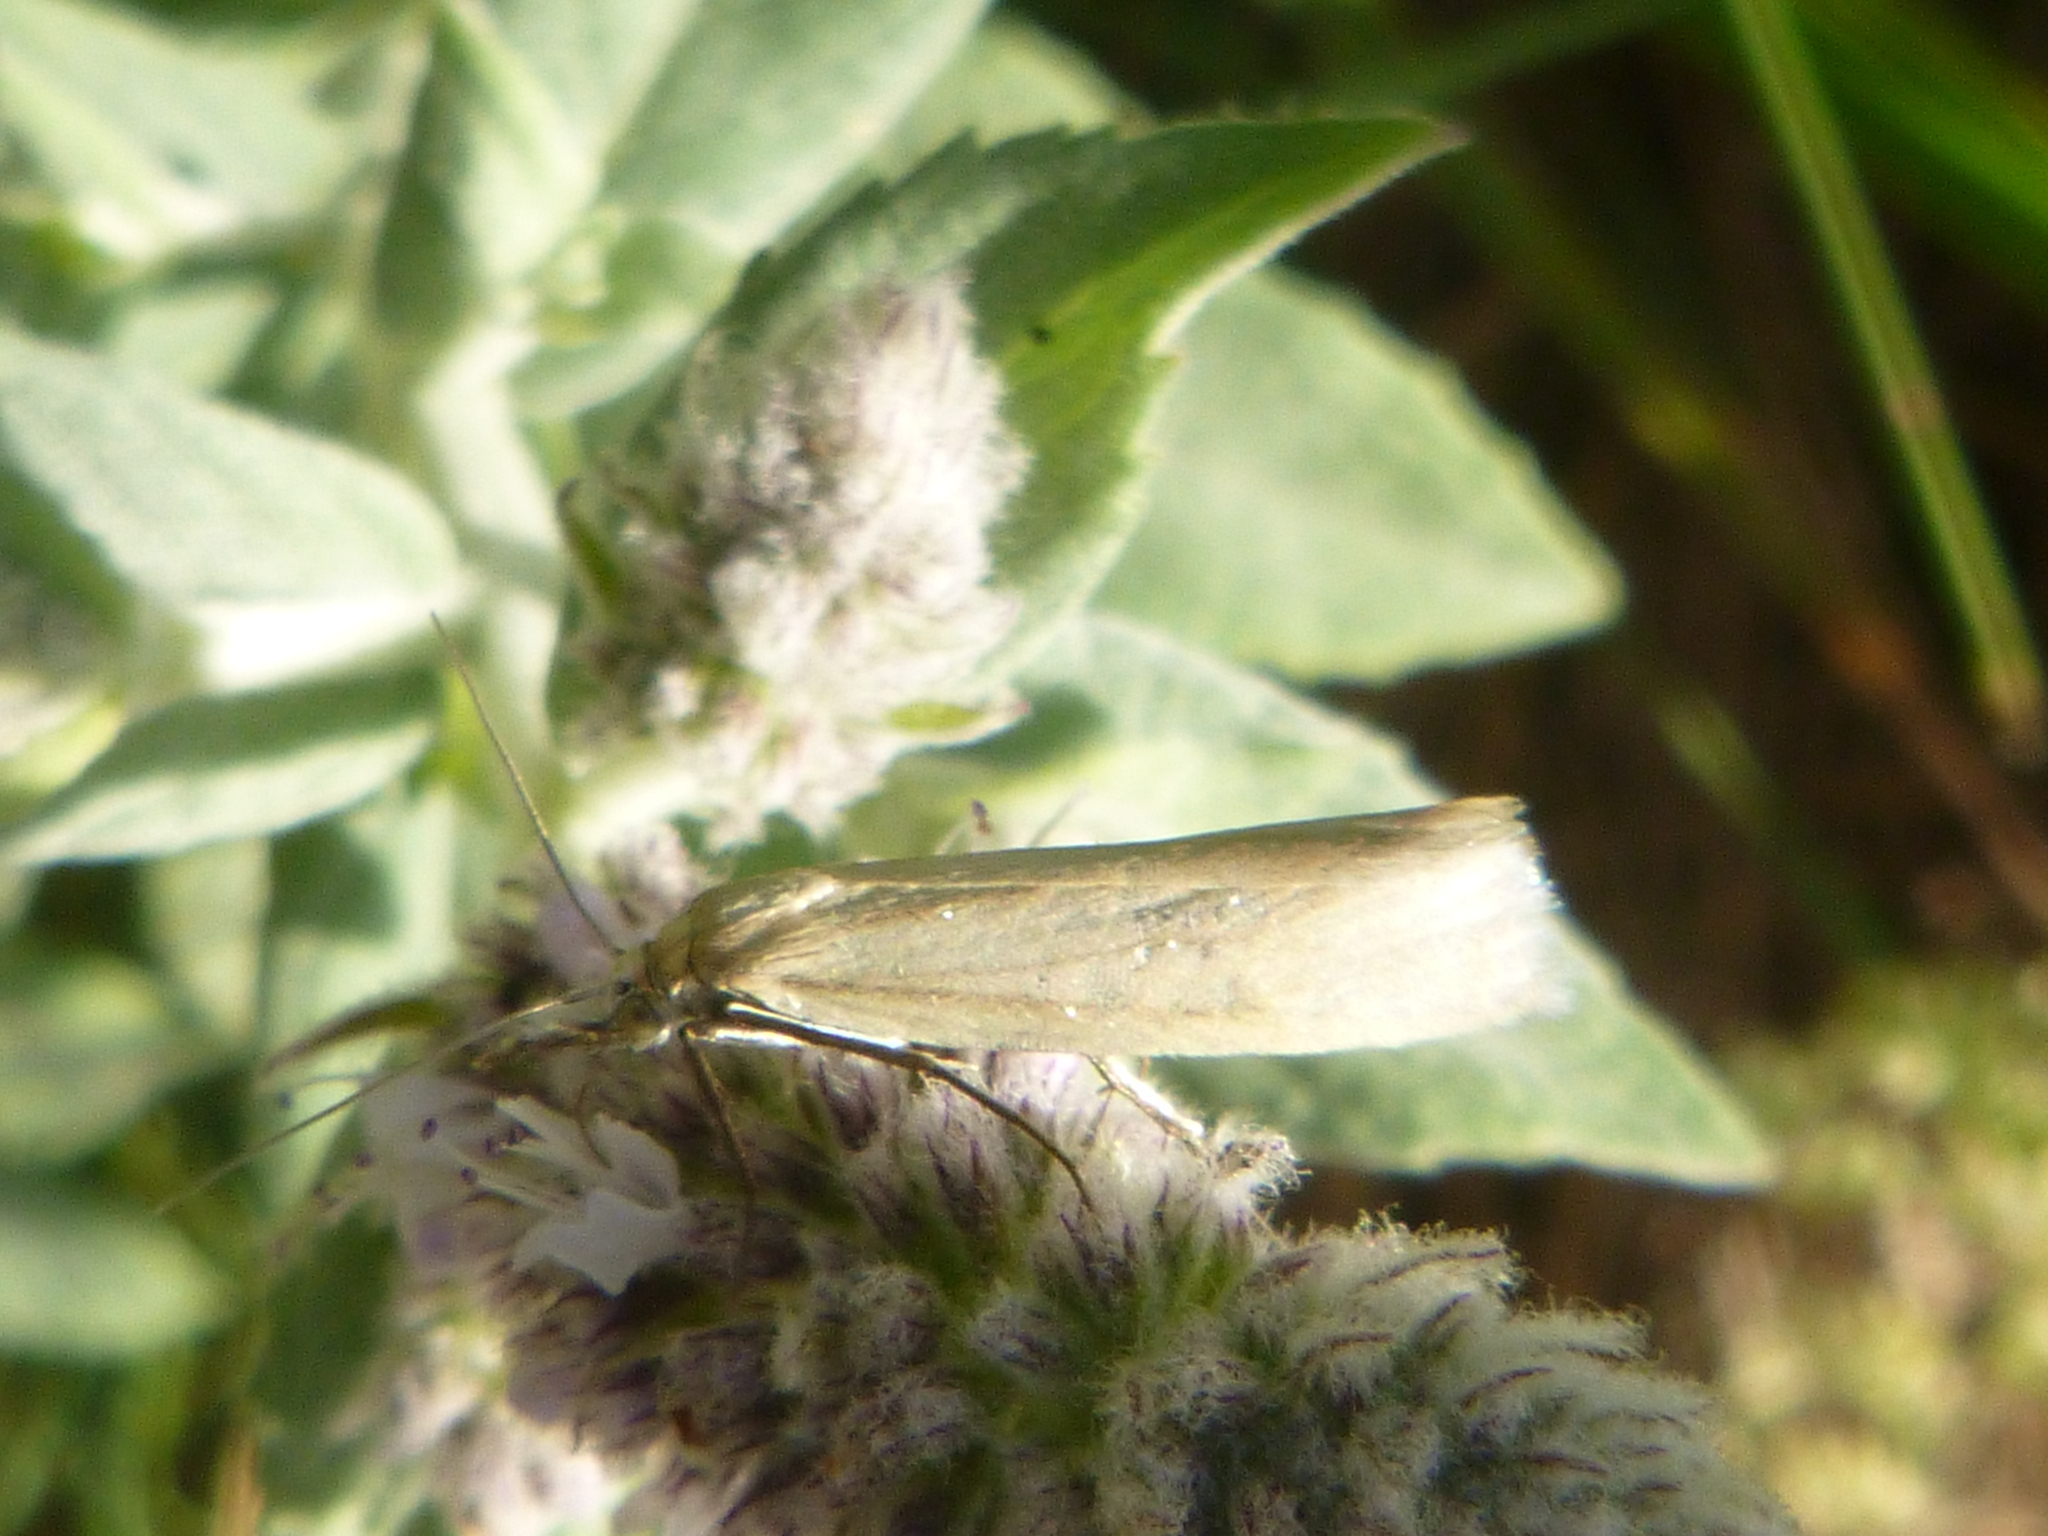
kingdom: Animalia
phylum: Arthropoda
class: Insecta
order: Lepidoptera
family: Crambidae
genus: Crambus
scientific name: Crambus perlellus
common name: Yellow satin veneer
